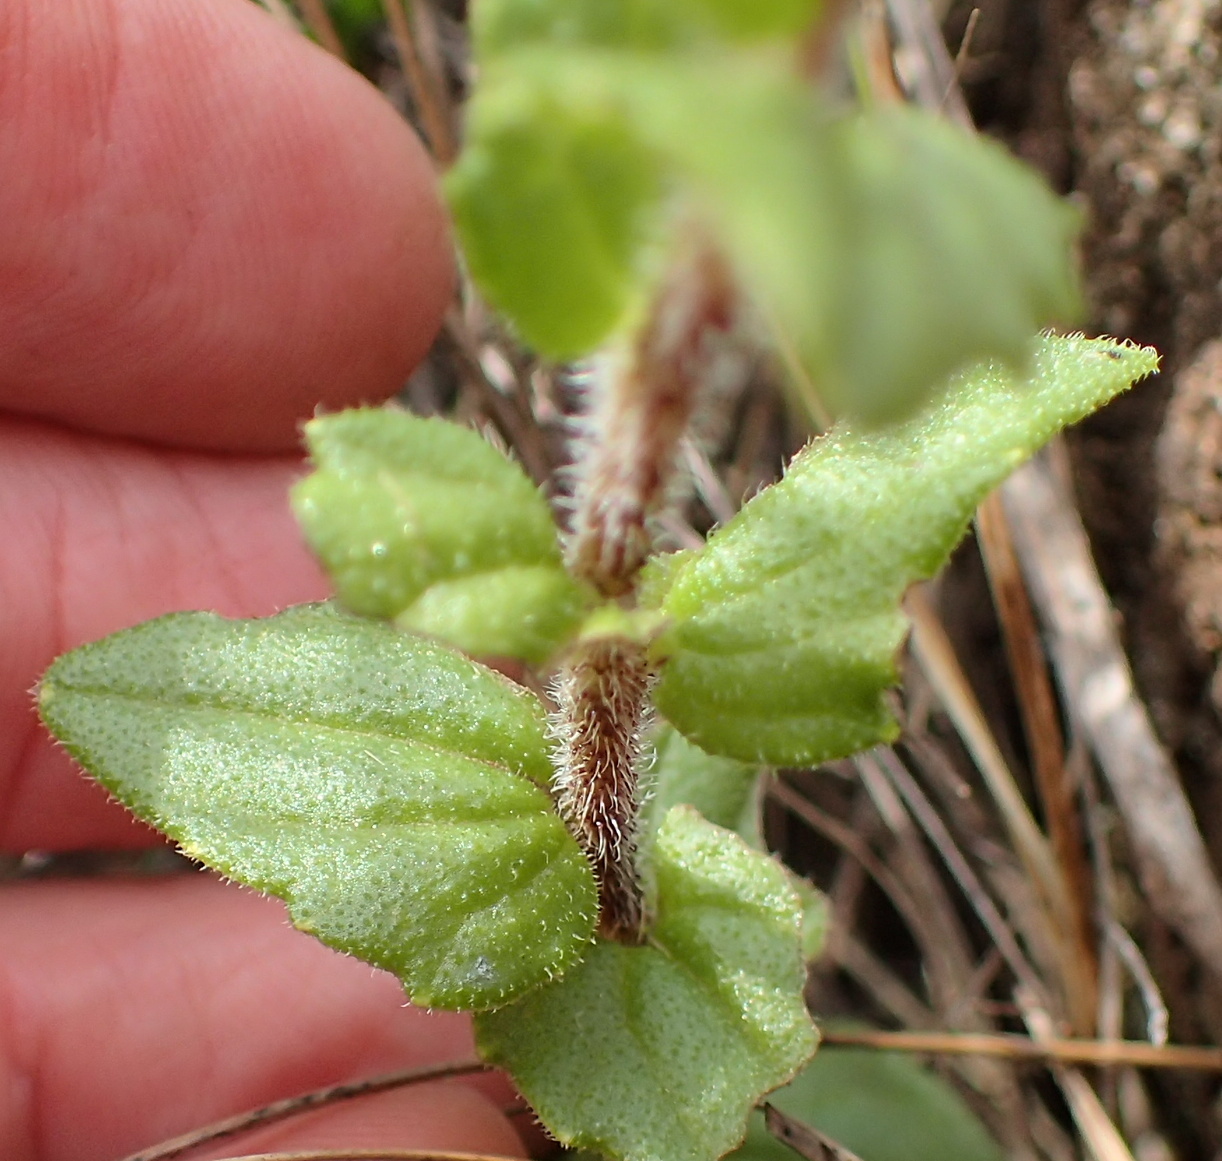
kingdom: Plantae
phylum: Tracheophyta
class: Magnoliopsida
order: Lamiales
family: Orobanchaceae
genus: Alectra
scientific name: Alectra sessiliflora
